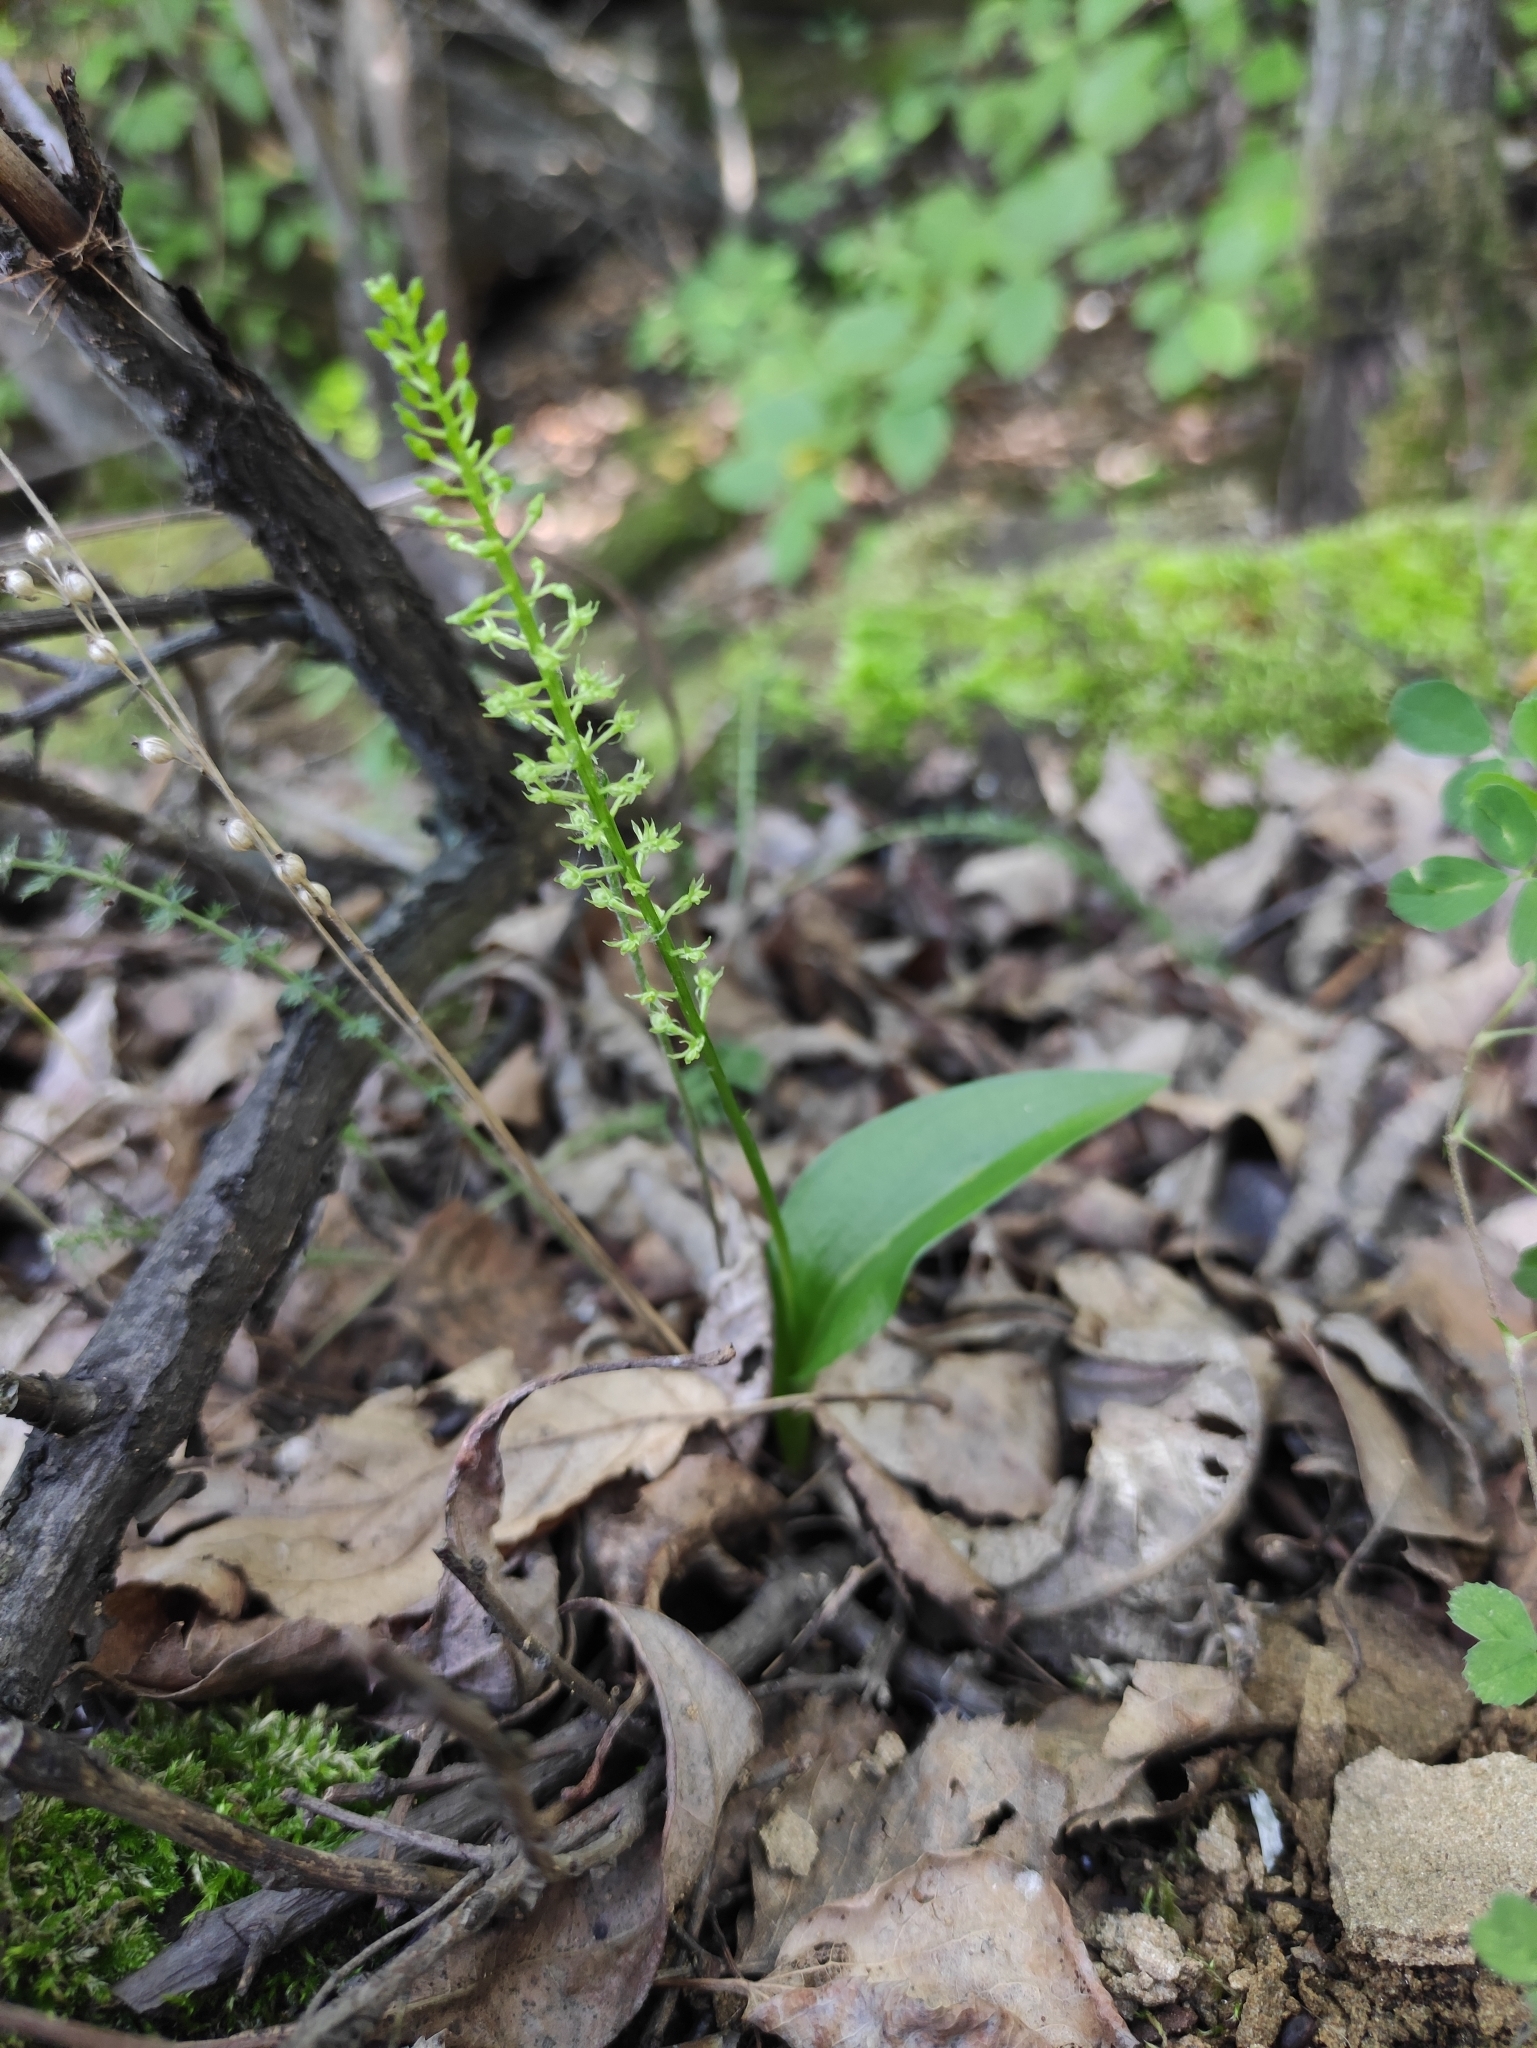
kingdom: Plantae
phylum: Tracheophyta
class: Liliopsida
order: Asparagales
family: Orchidaceae
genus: Malaxis
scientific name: Malaxis monophyllos
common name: White adder's-mouth
